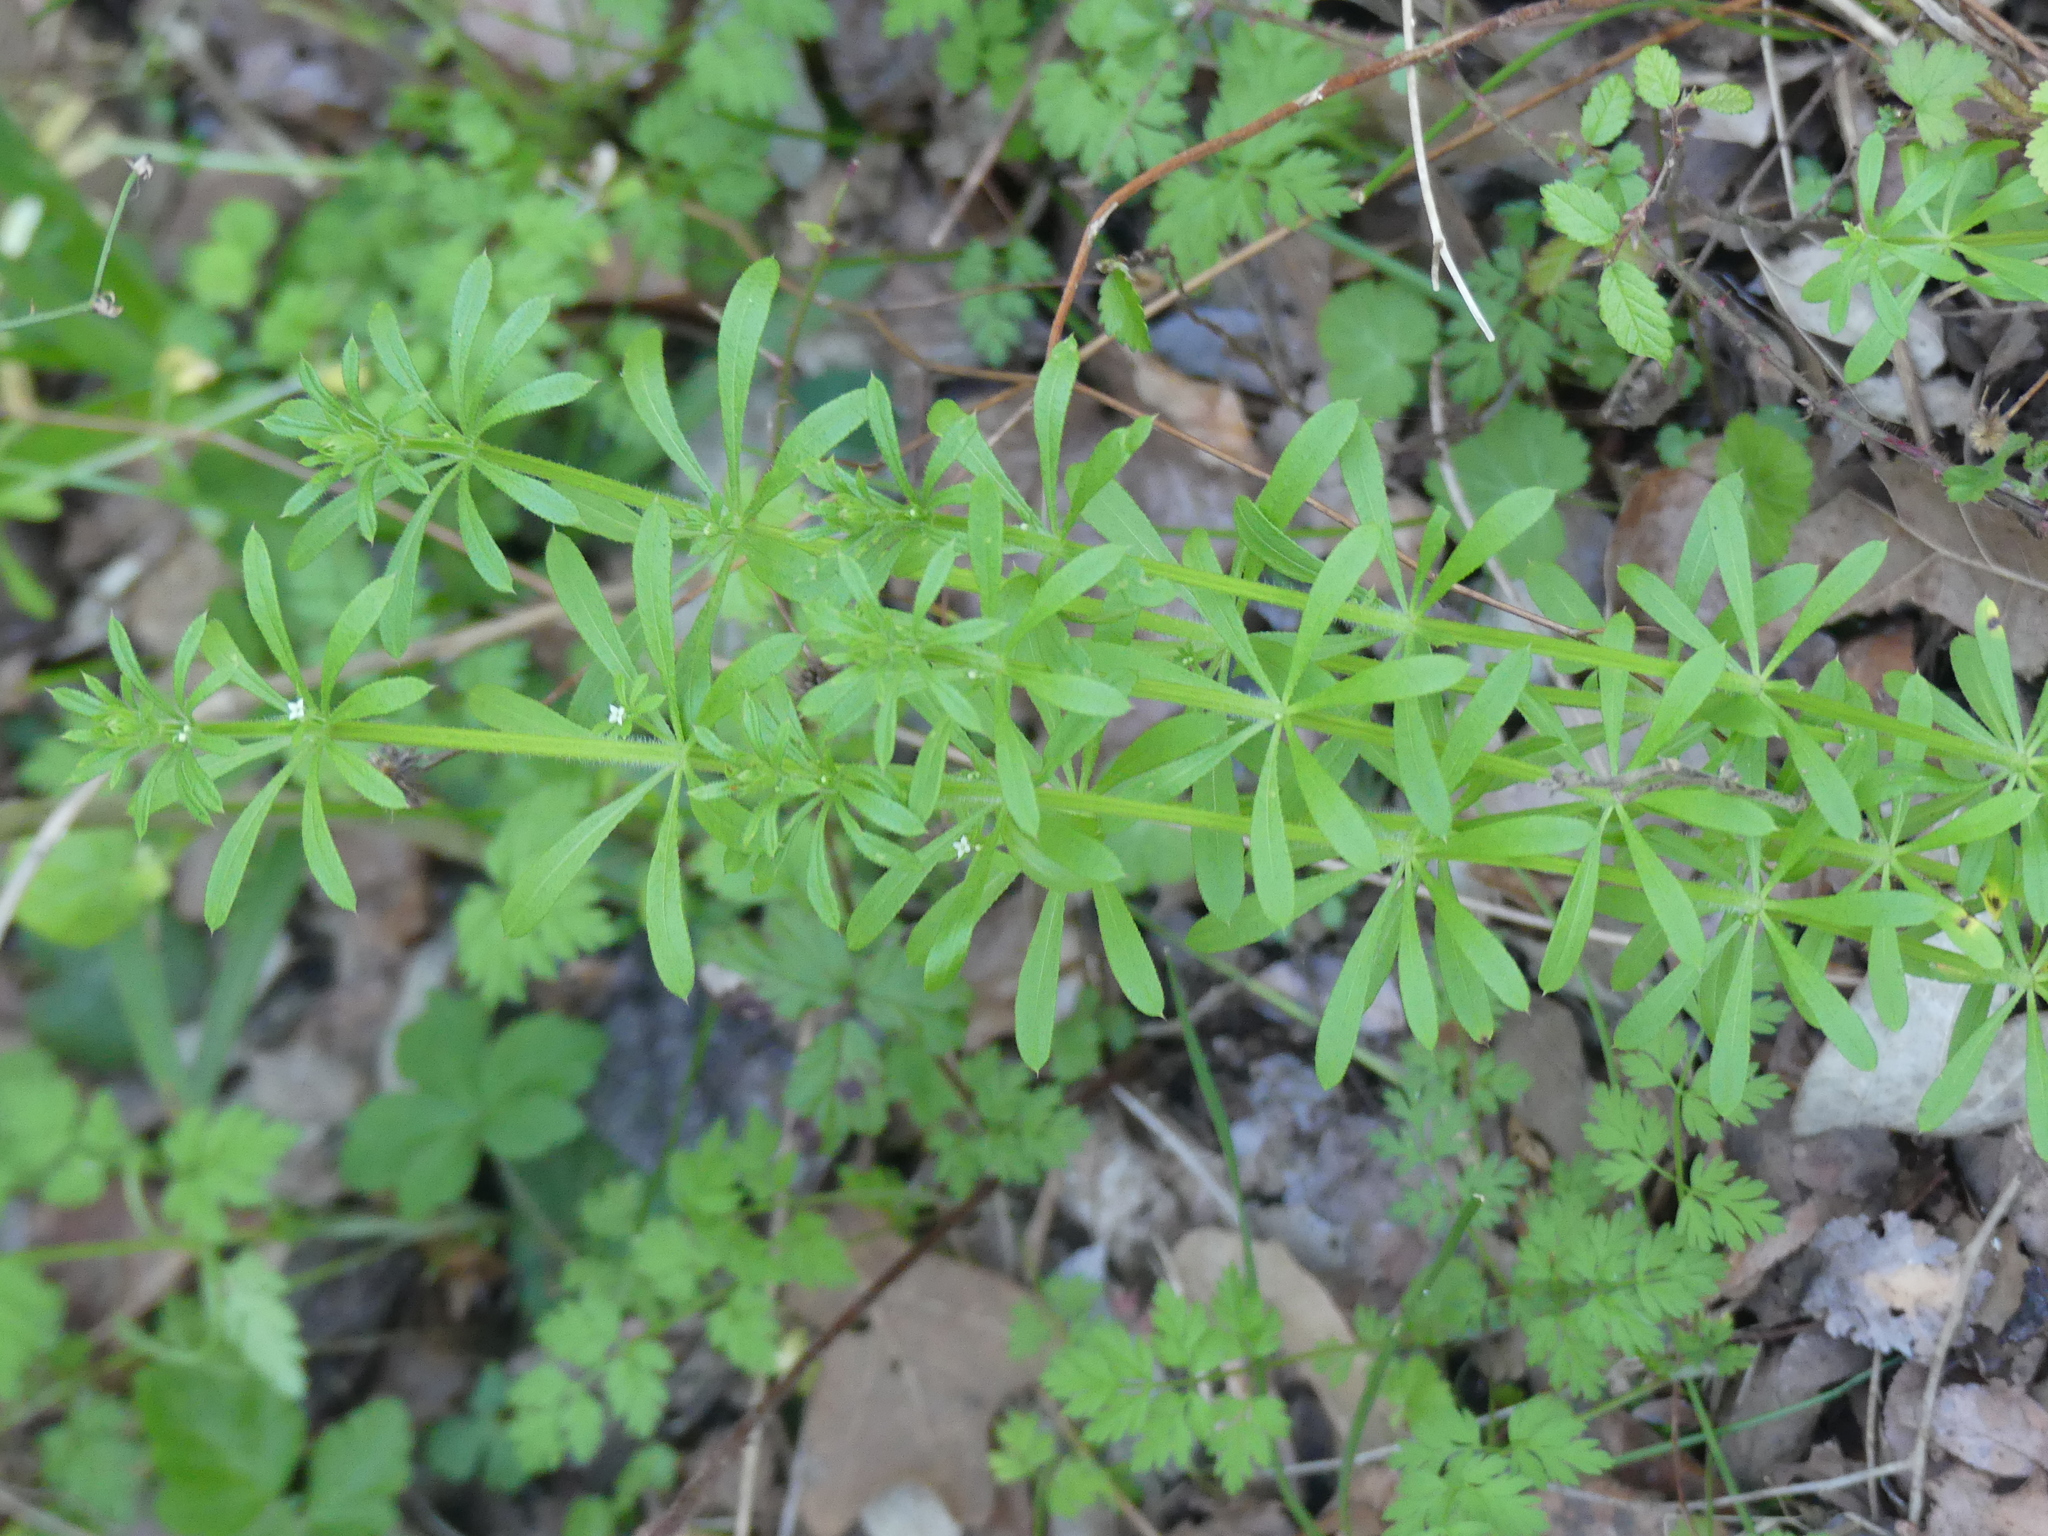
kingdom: Plantae
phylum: Tracheophyta
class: Magnoliopsida
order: Gentianales
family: Rubiaceae
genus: Galium
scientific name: Galium aparine
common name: Cleavers
